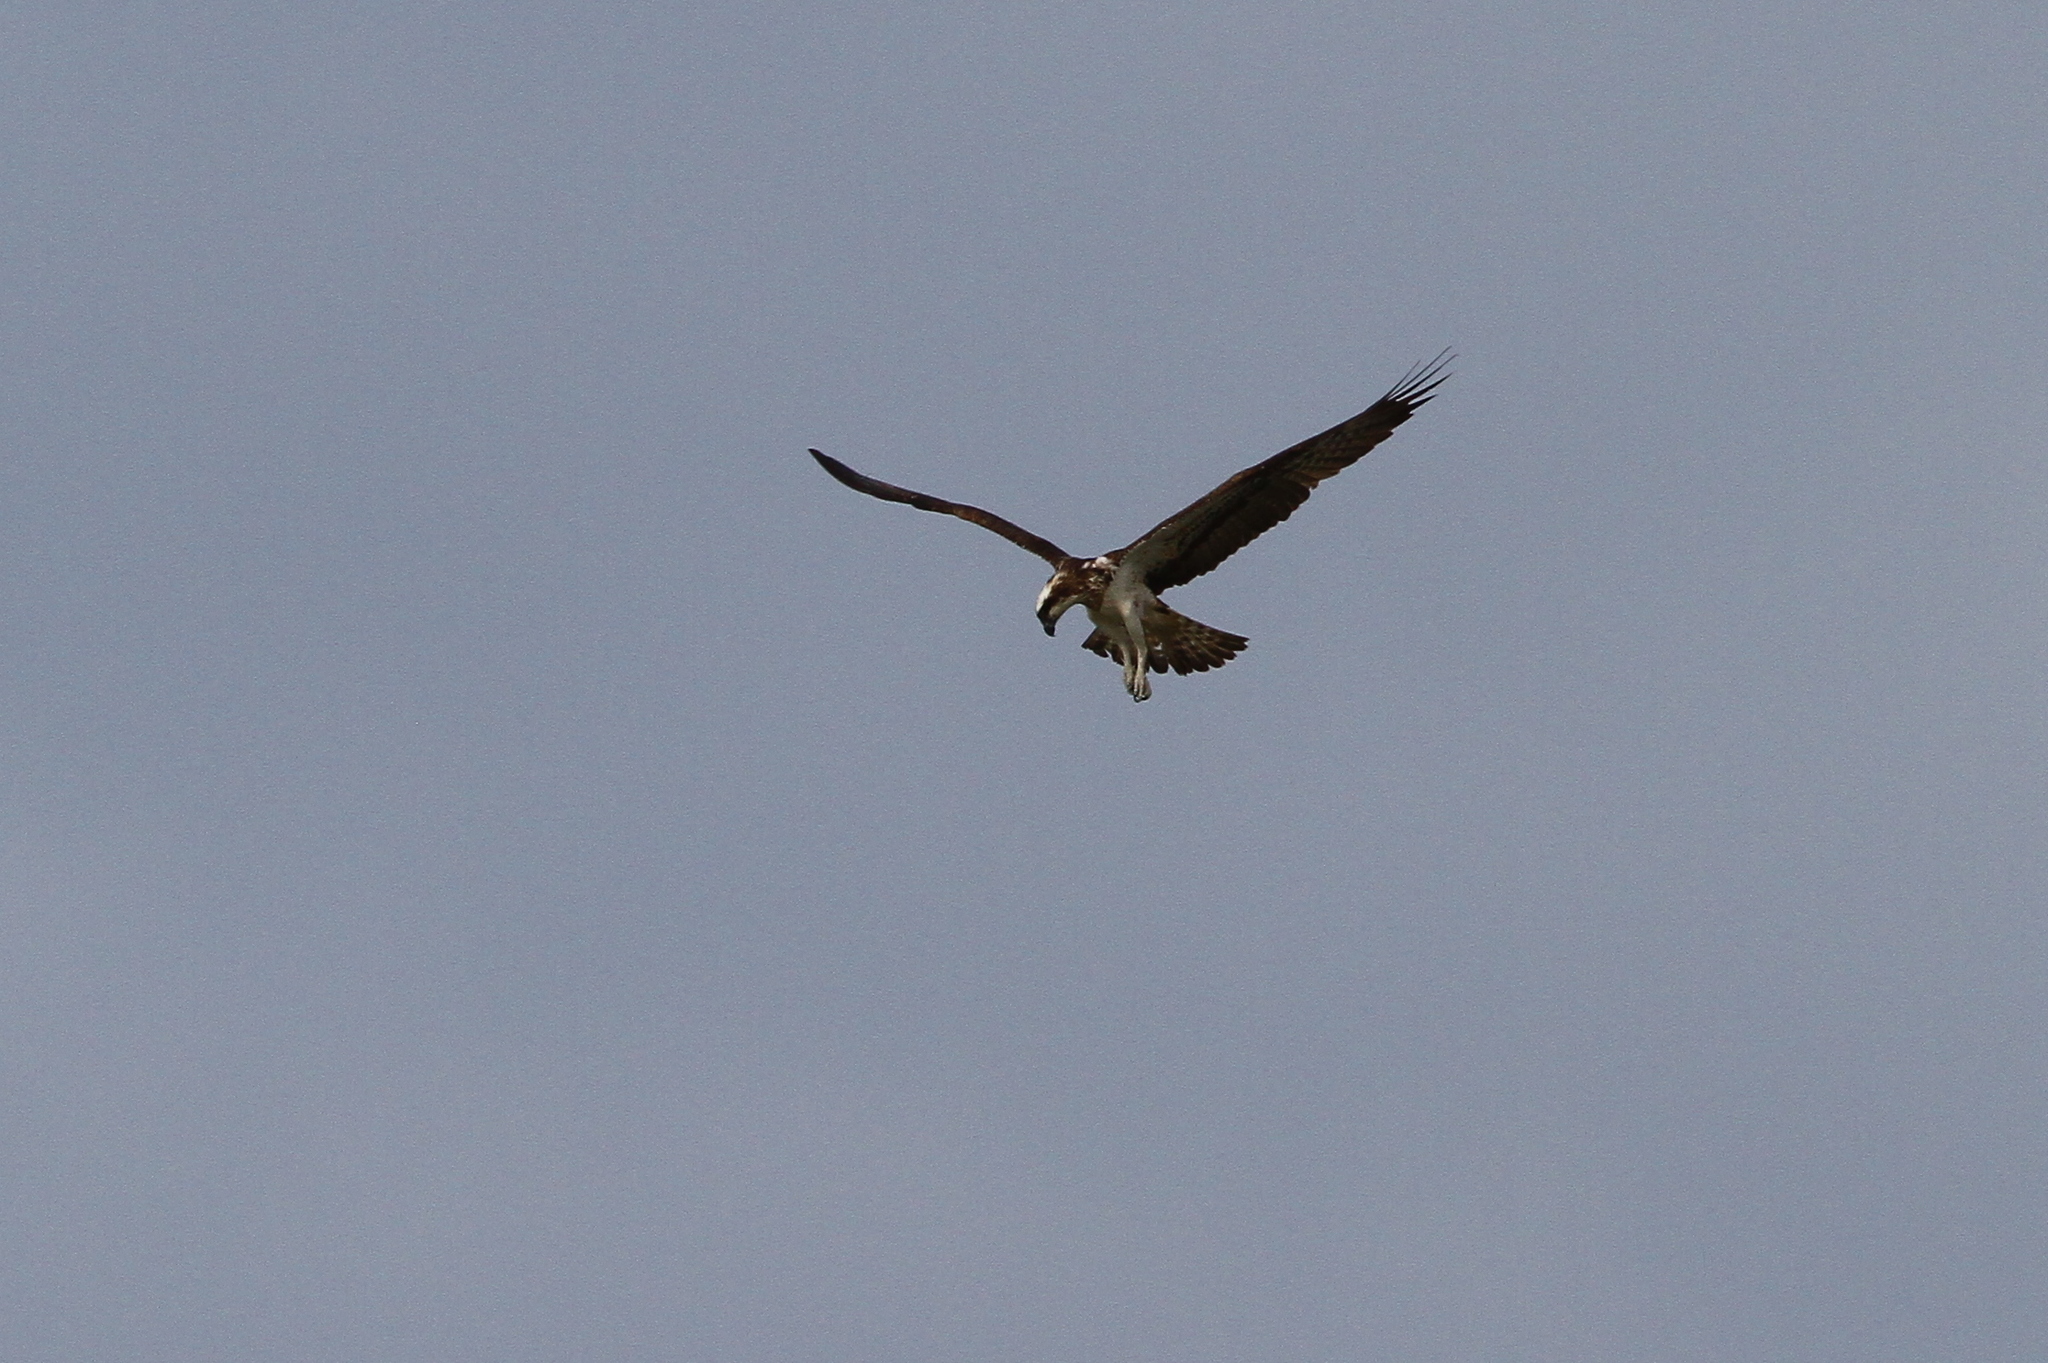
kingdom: Animalia
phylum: Chordata
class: Aves
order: Accipitriformes
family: Pandionidae
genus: Pandion
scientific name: Pandion haliaetus
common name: Osprey
